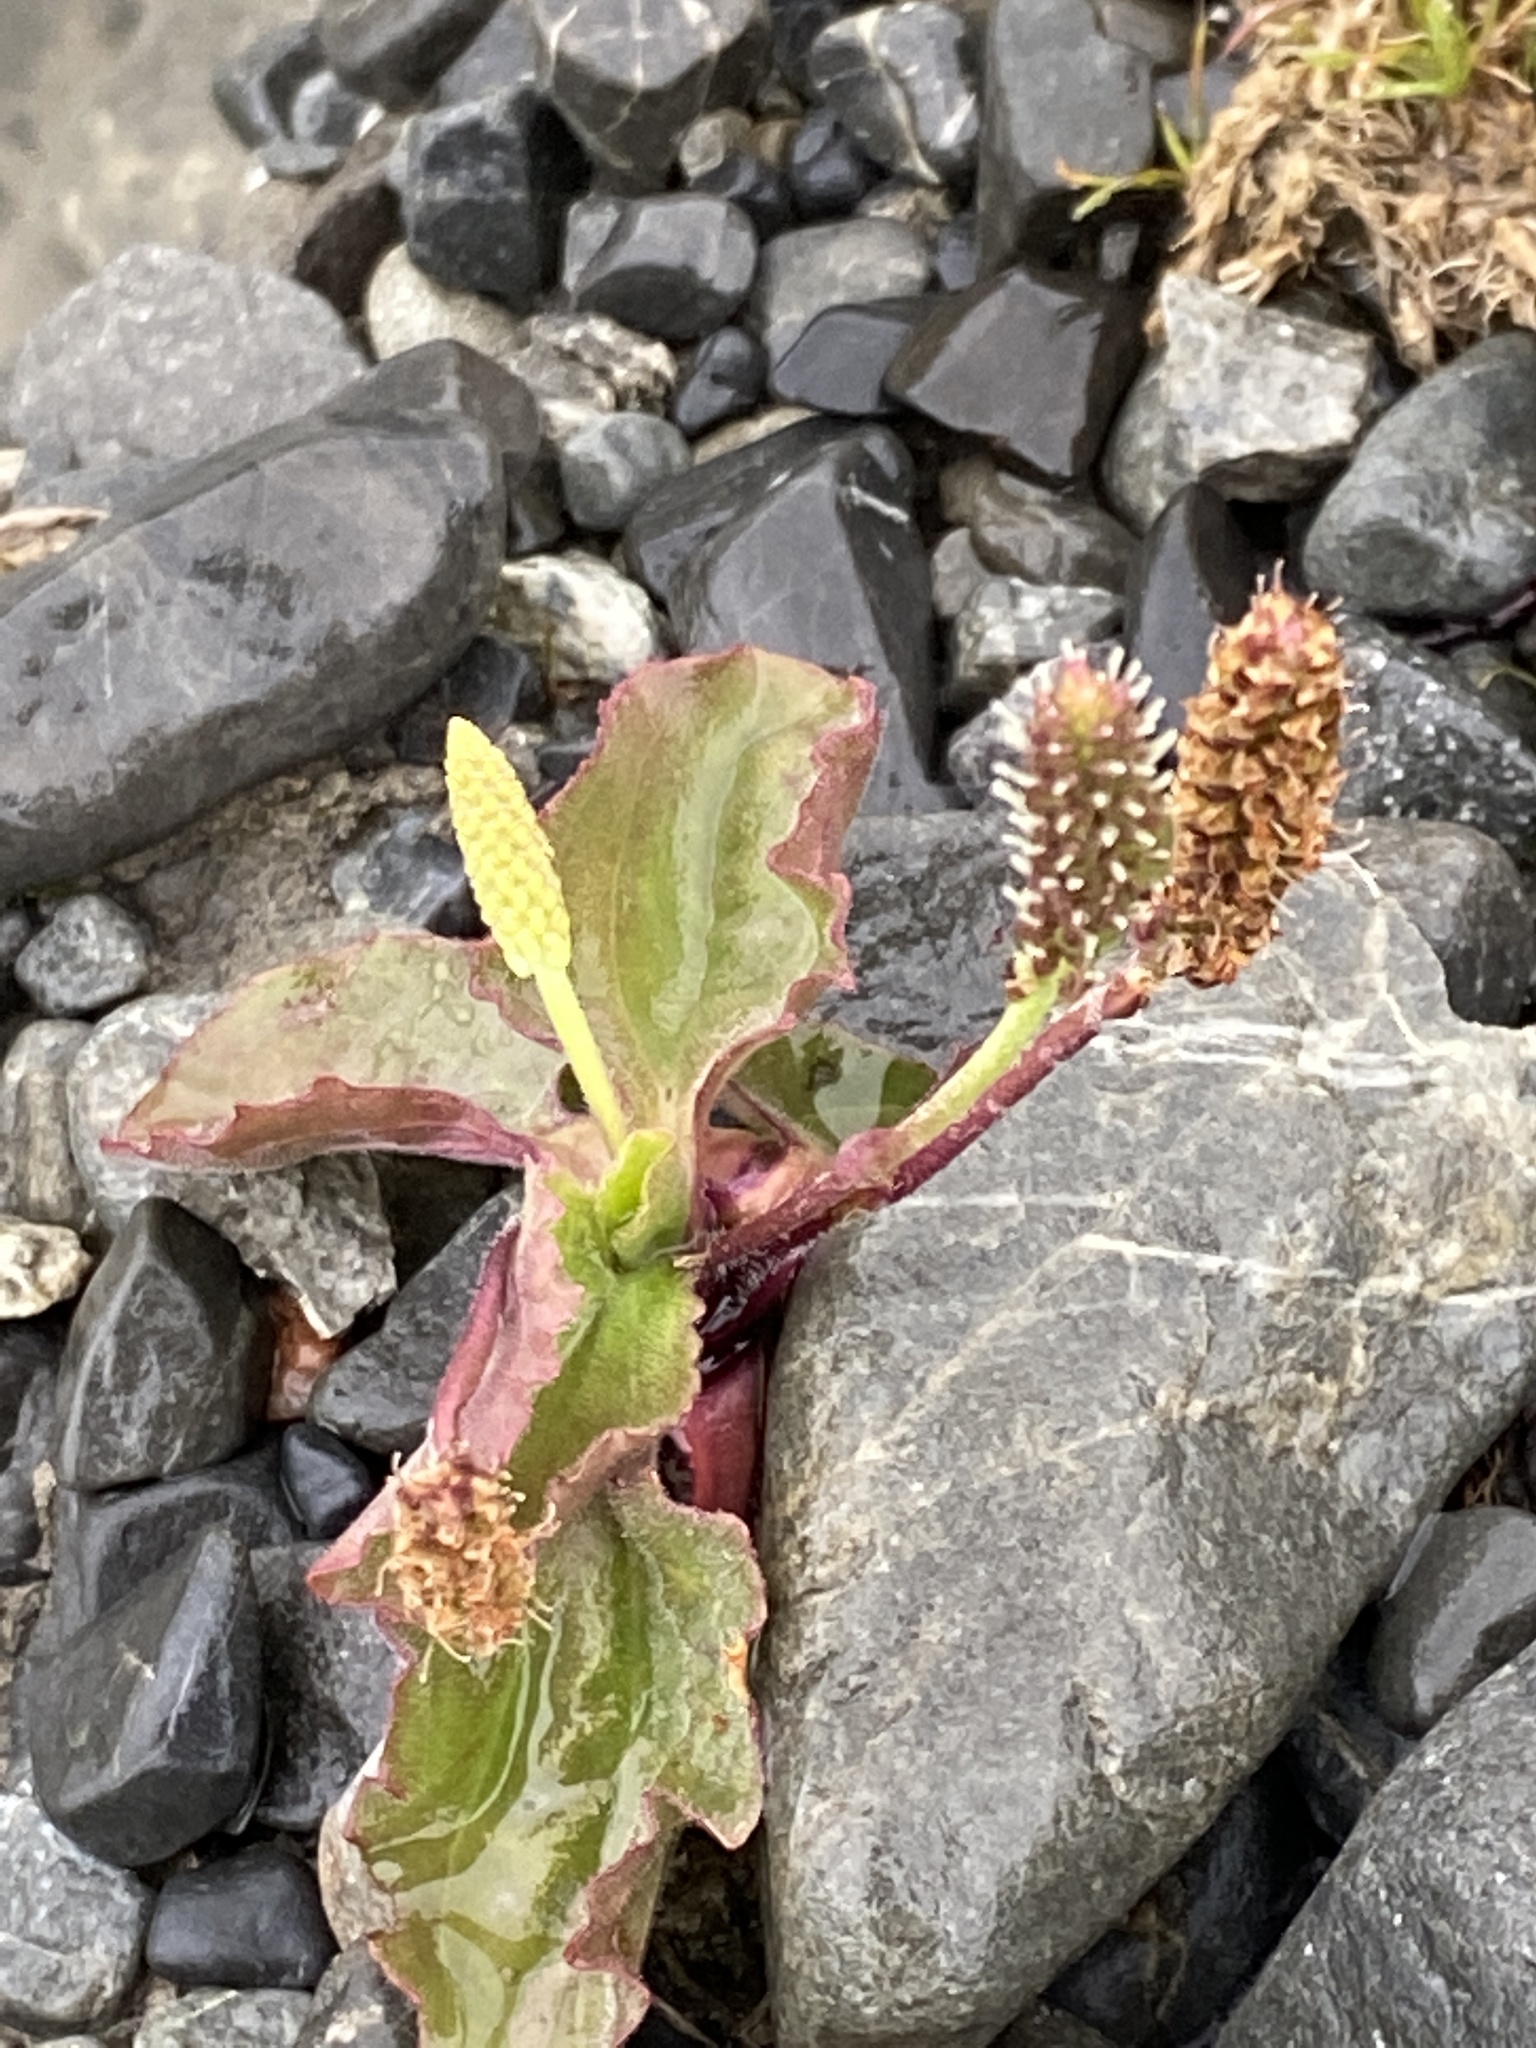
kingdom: Plantae
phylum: Tracheophyta
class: Magnoliopsida
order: Lamiales
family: Plantaginaceae
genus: Plantago
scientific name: Plantago major
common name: Common plantain
